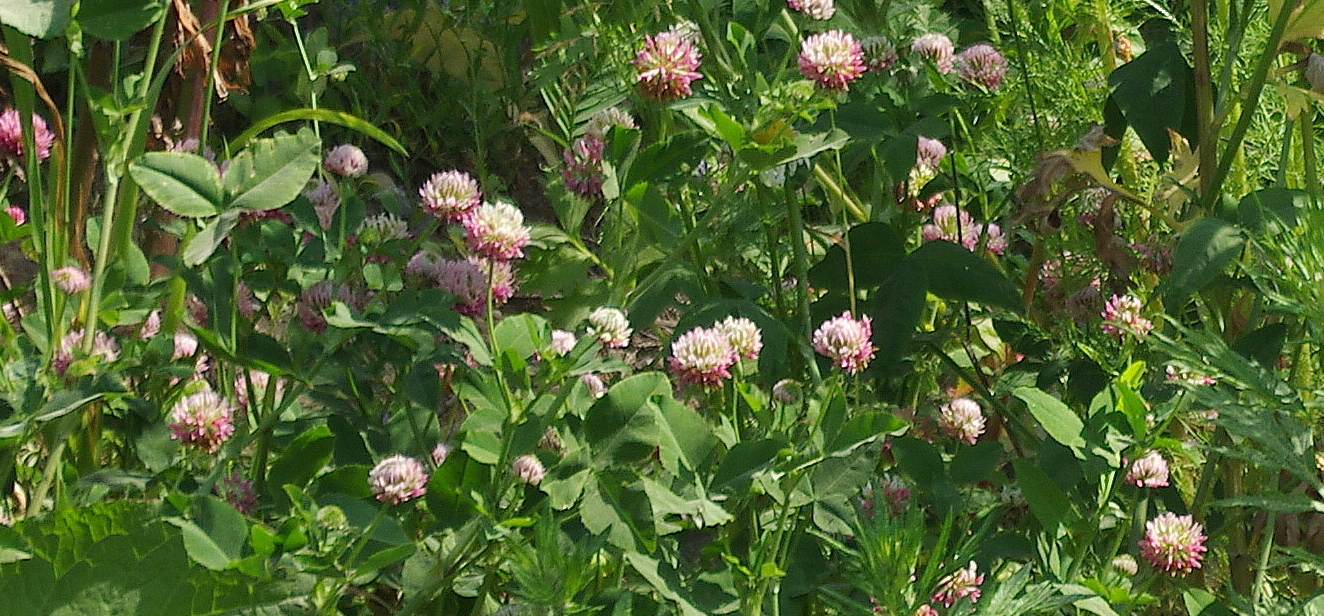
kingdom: Plantae
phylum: Tracheophyta
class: Magnoliopsida
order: Fabales
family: Fabaceae
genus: Trifolium
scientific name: Trifolium hybridum
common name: Alsike clover
